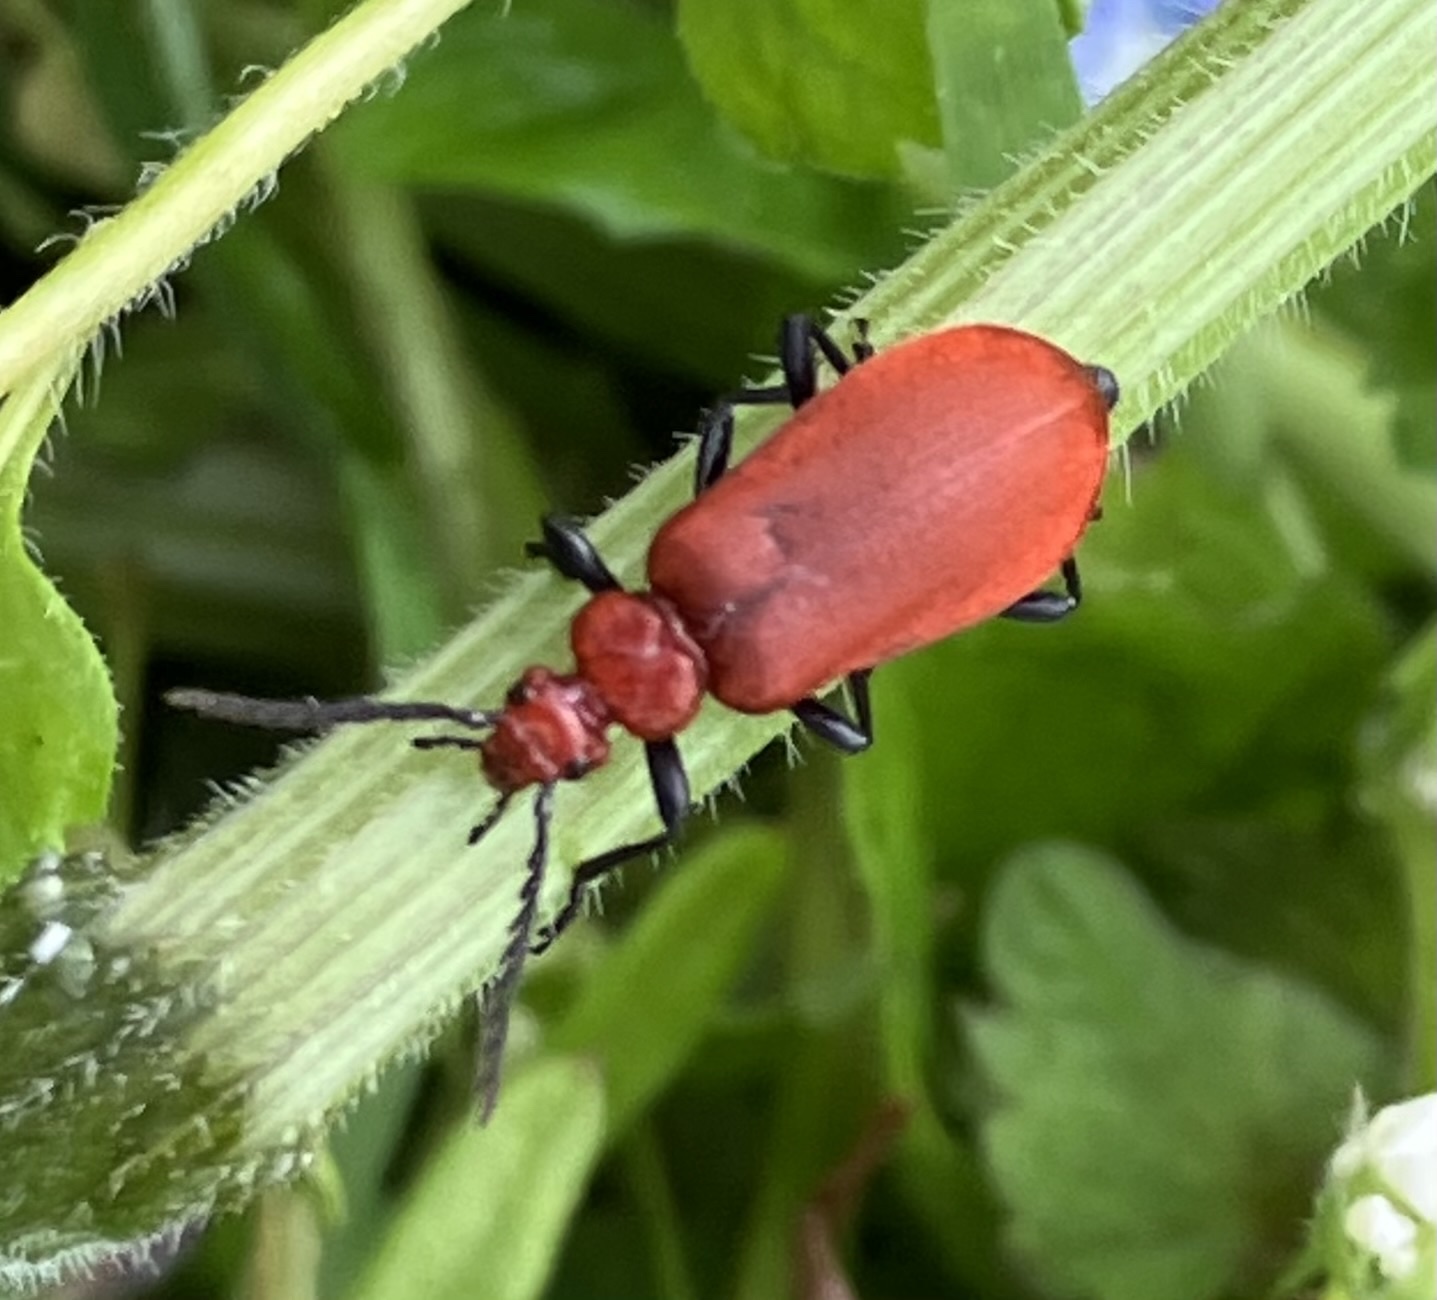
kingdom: Animalia
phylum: Arthropoda
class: Insecta
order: Coleoptera
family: Pyrochroidae
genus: Pyrochroa
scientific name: Pyrochroa serraticornis
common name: Red-headed cardinal beetle
